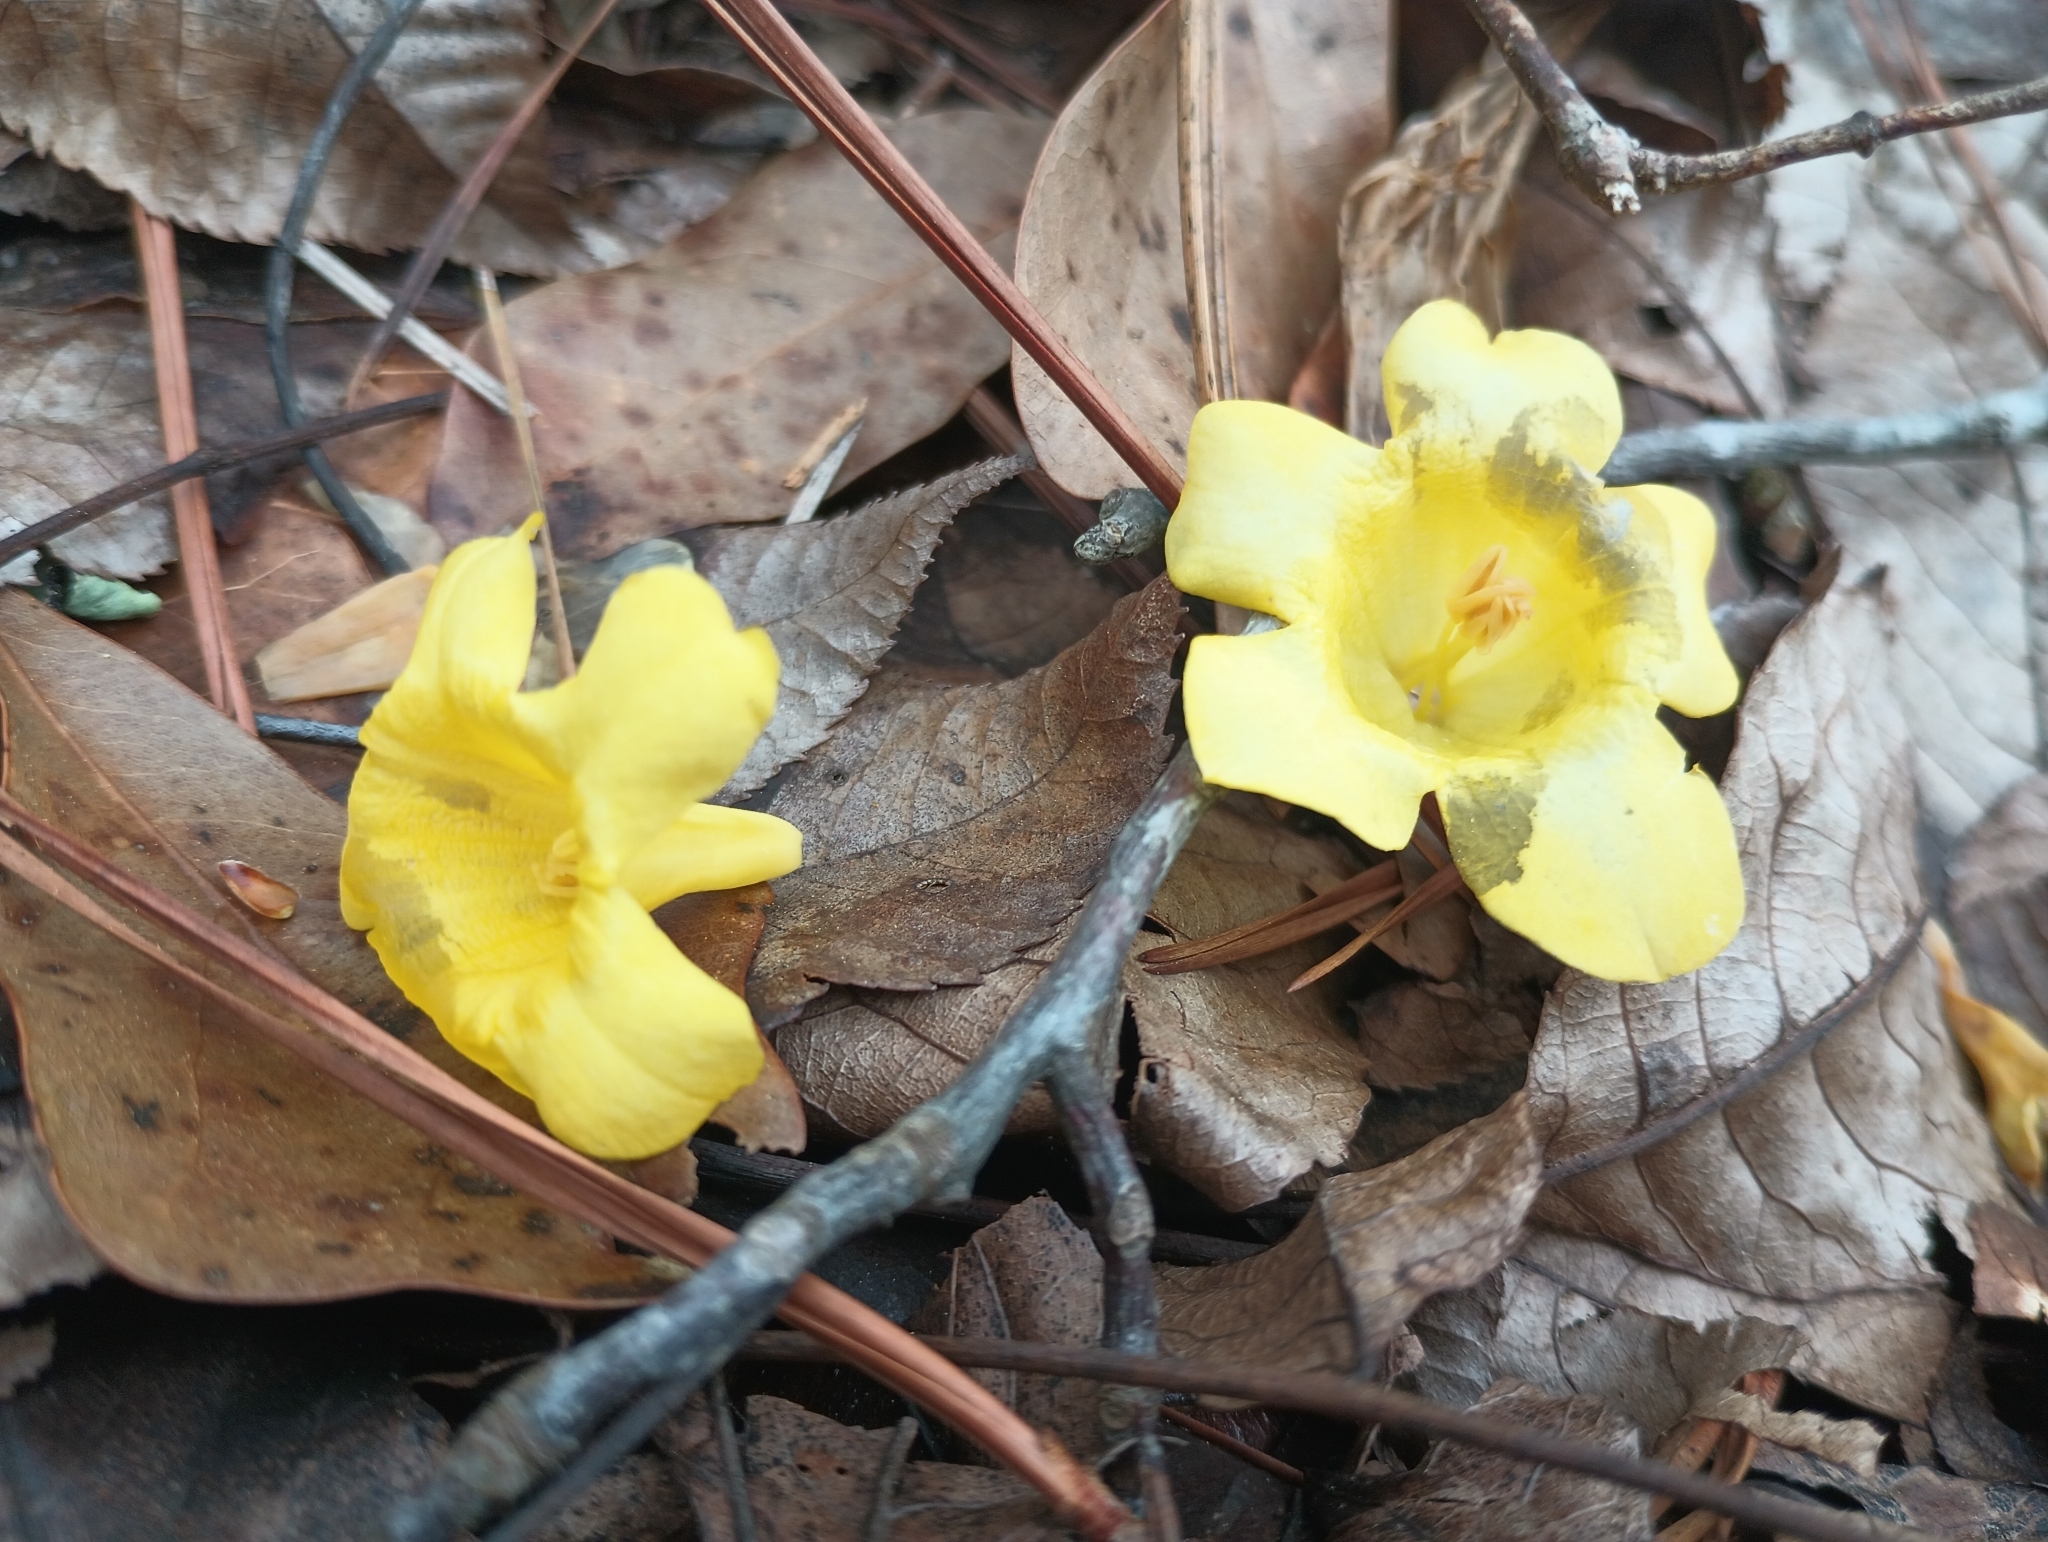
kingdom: Plantae
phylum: Tracheophyta
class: Magnoliopsida
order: Gentianales
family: Gelsemiaceae
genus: Gelsemium
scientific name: Gelsemium sempervirens
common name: Carolina-jasmine
